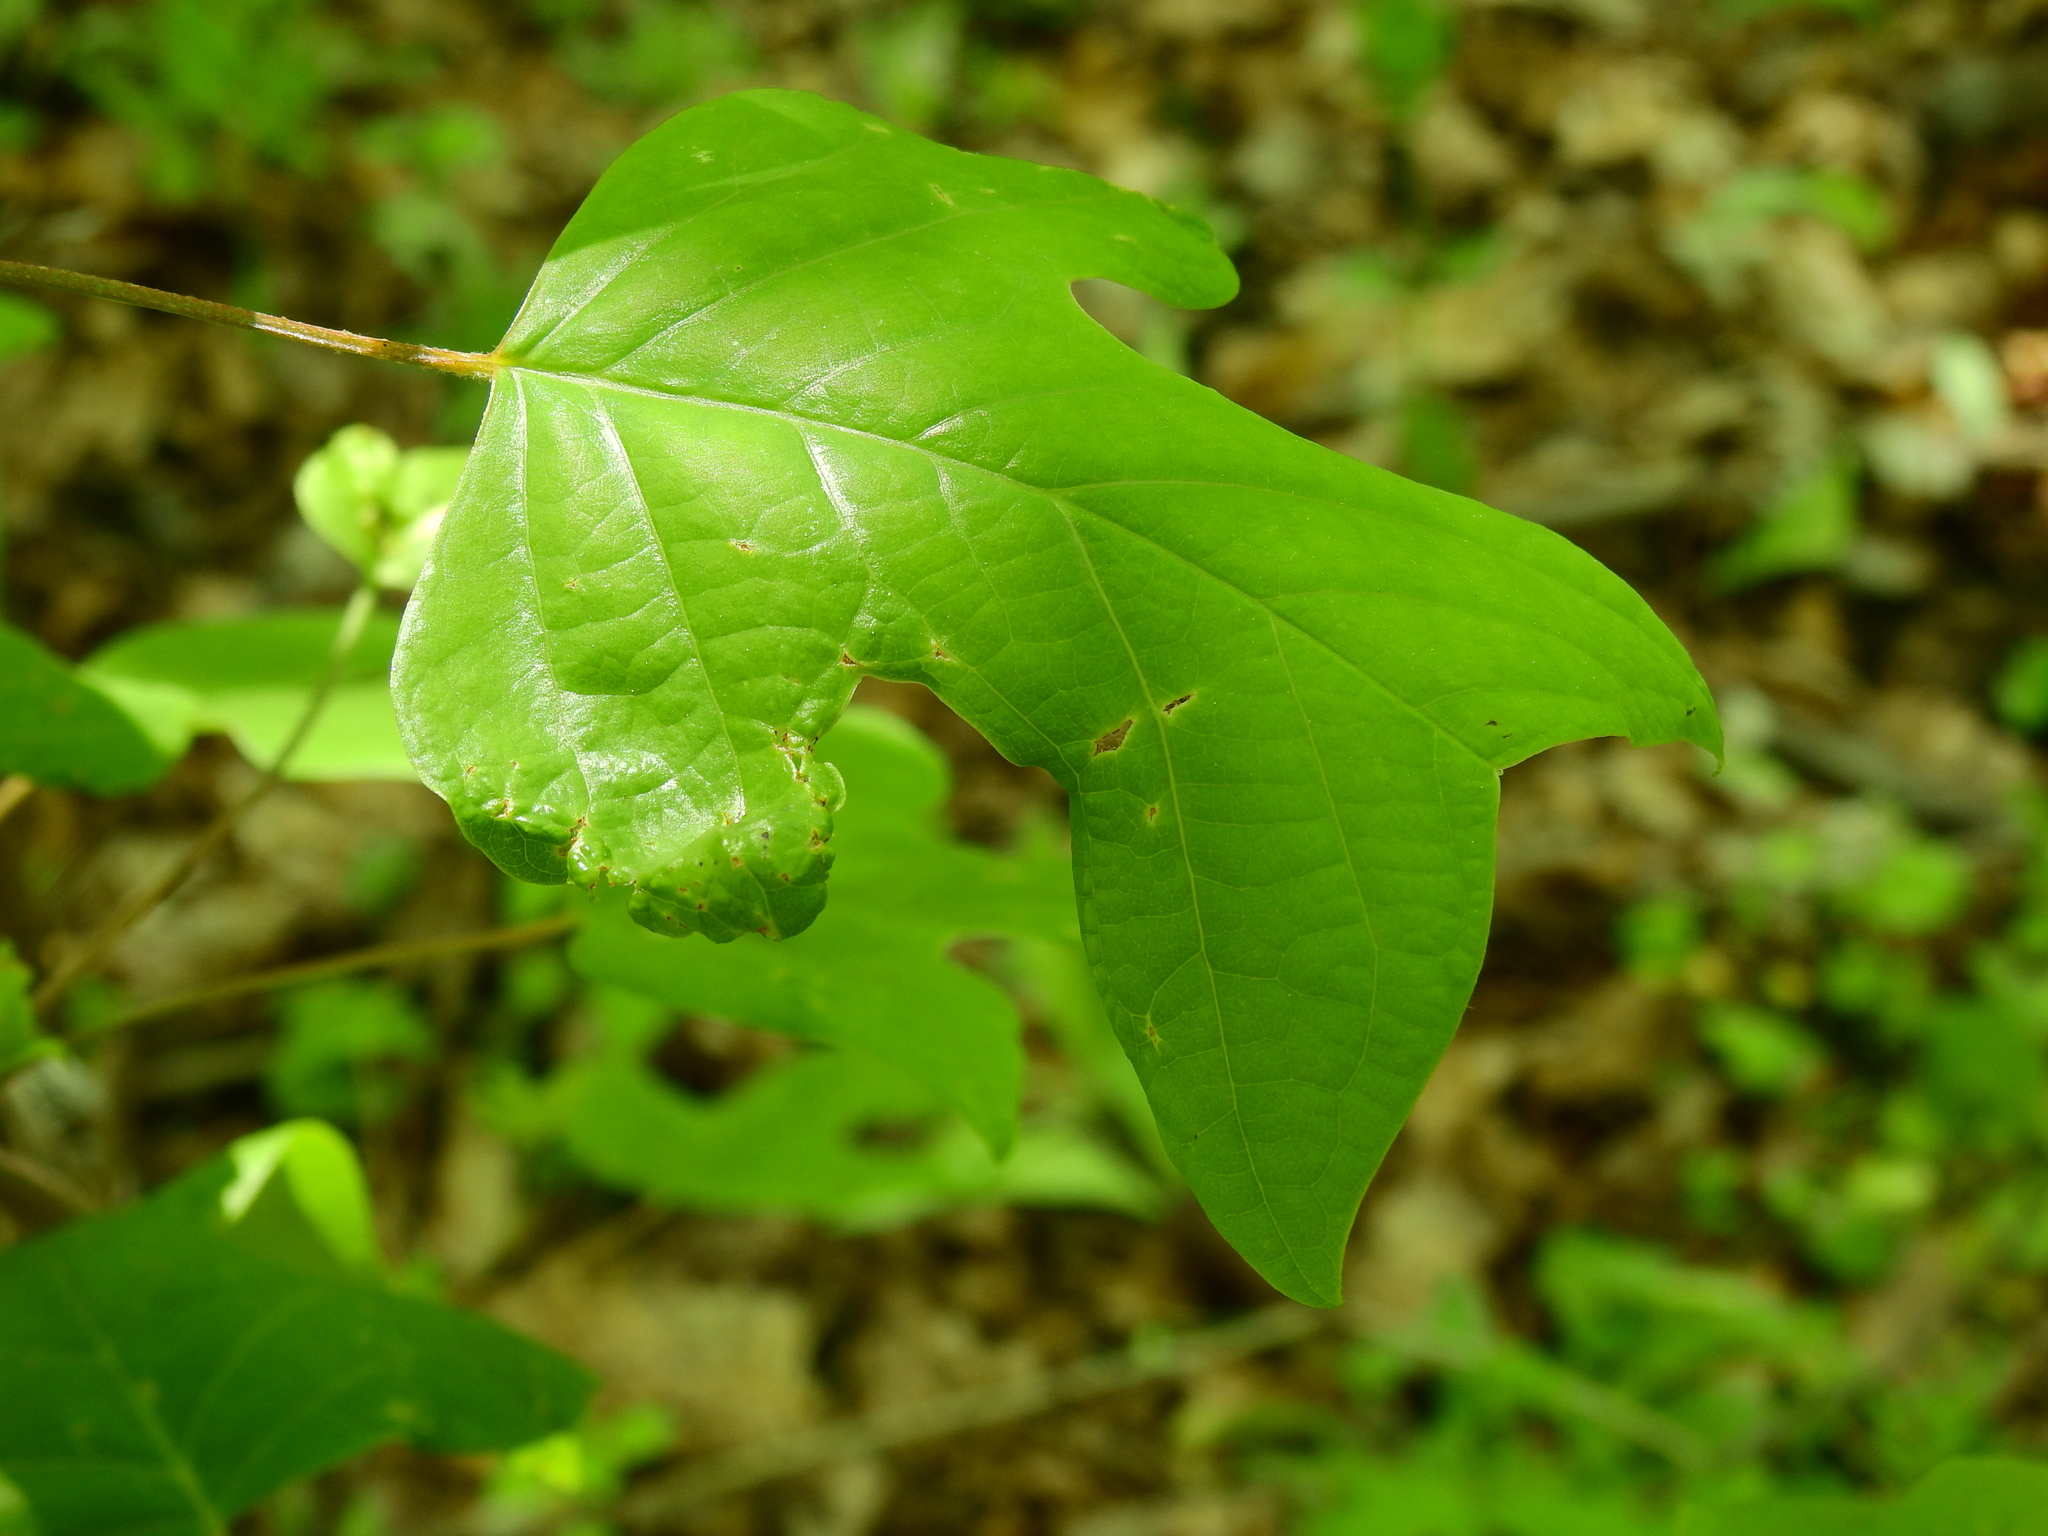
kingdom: Plantae
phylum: Tracheophyta
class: Magnoliopsida
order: Magnoliales
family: Magnoliaceae
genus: Liriodendron
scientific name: Liriodendron tulipifera
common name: Tulip tree
